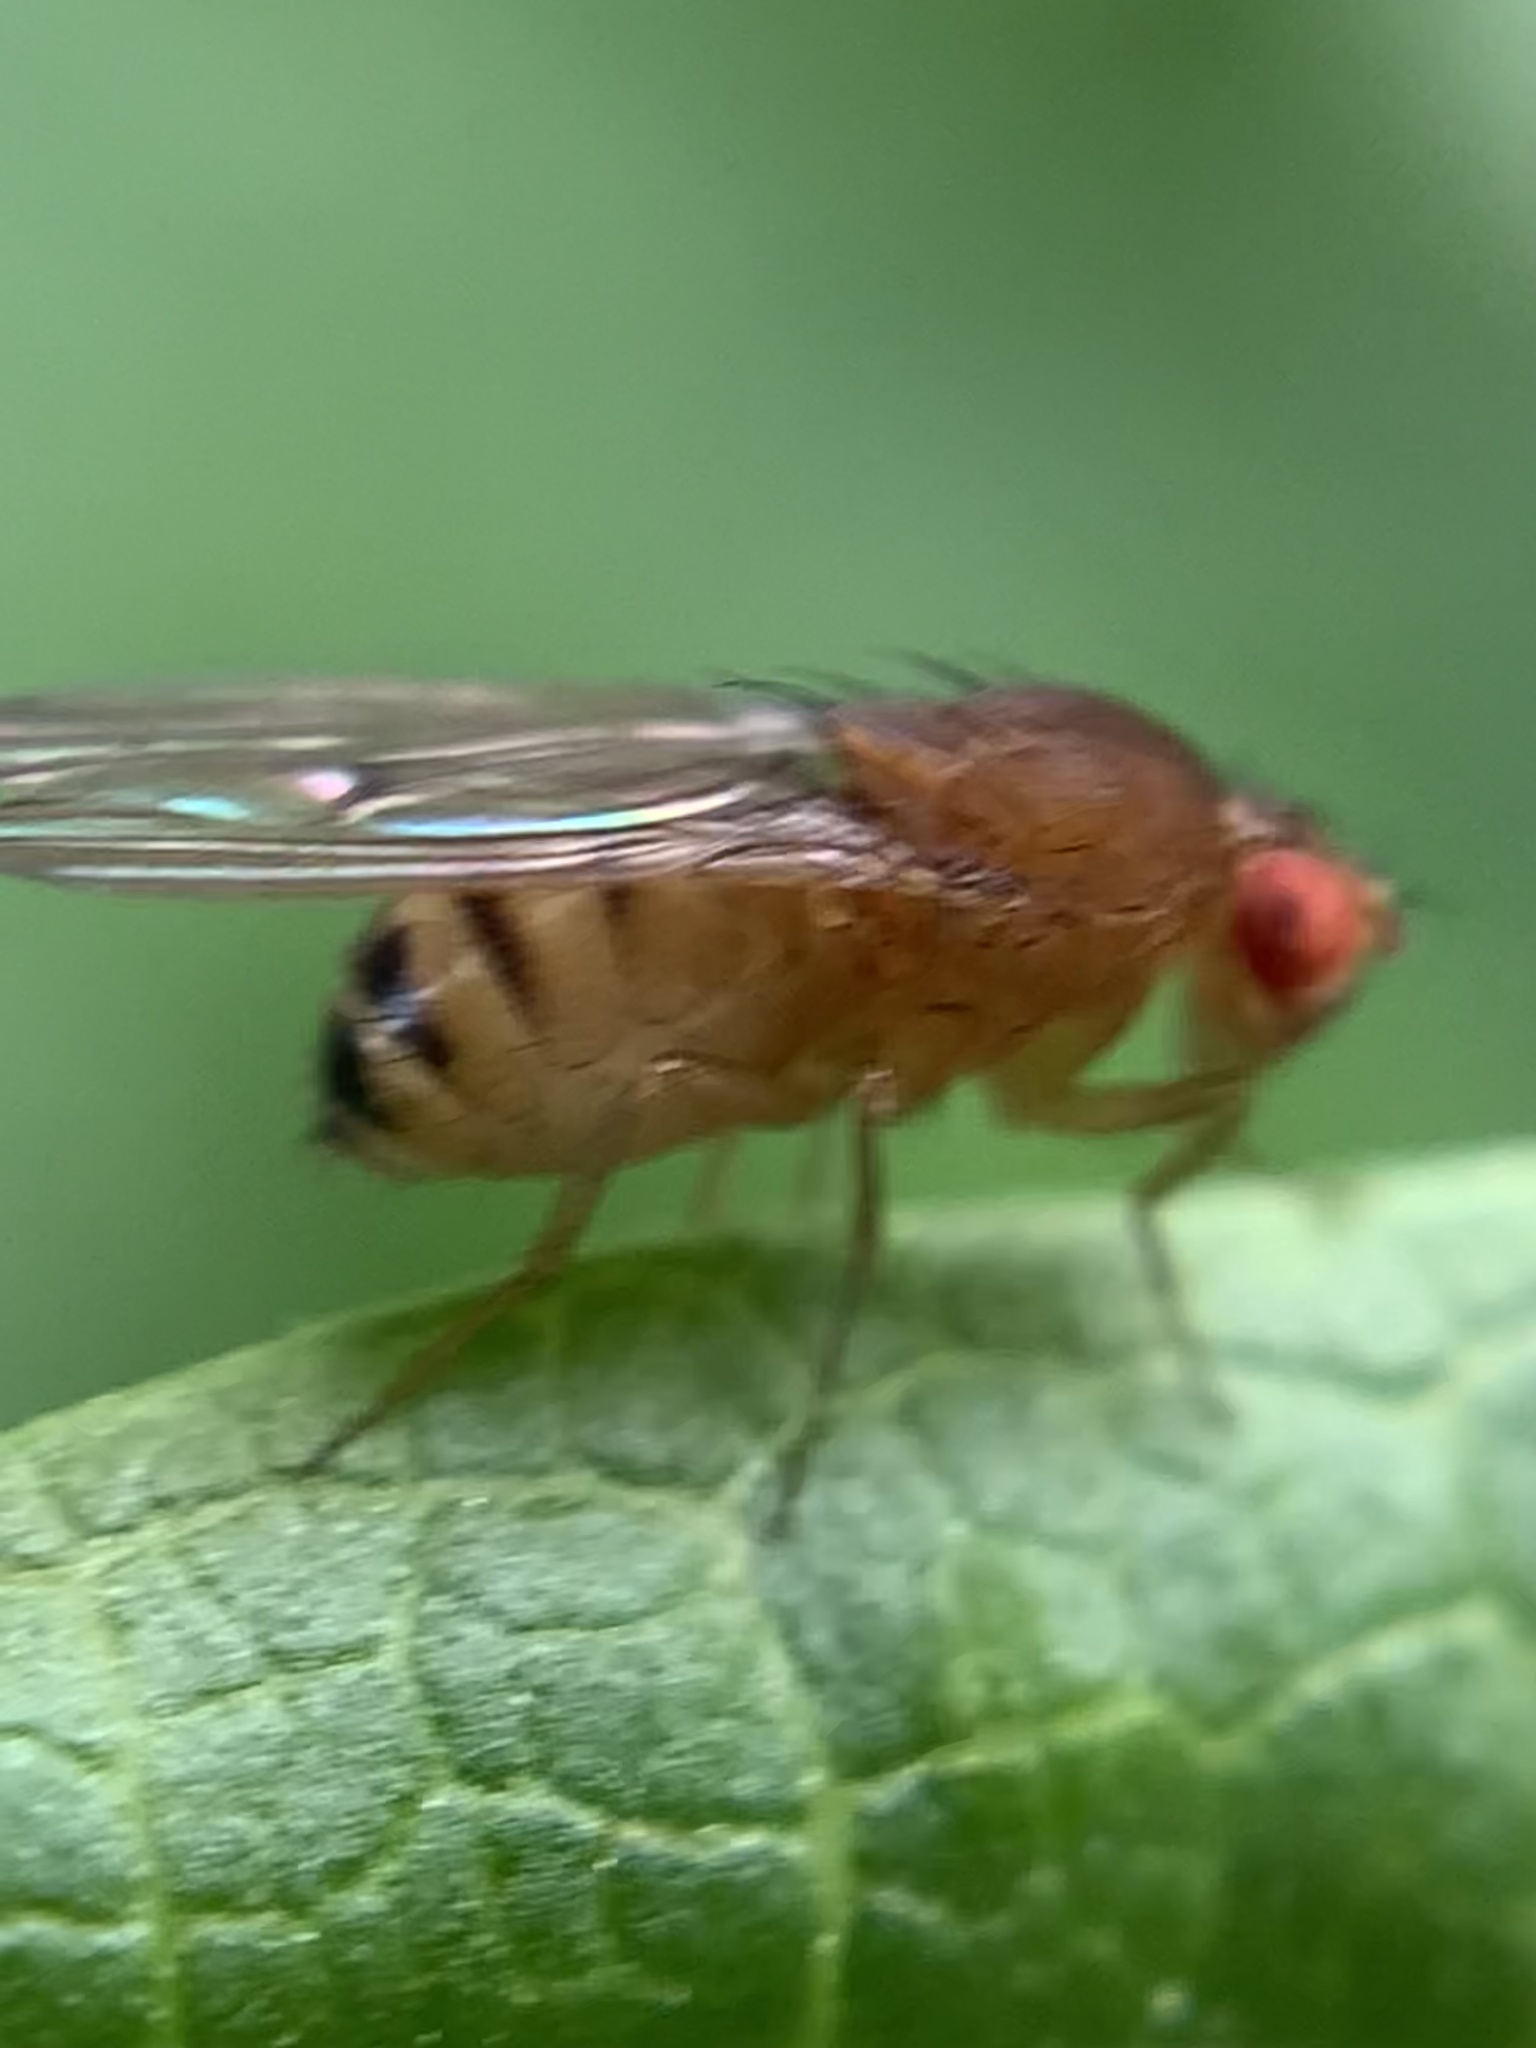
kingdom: Animalia
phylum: Arthropoda
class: Insecta
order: Diptera
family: Drosophilidae
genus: Drosophila
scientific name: Drosophila immigrans
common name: Pomace fly
